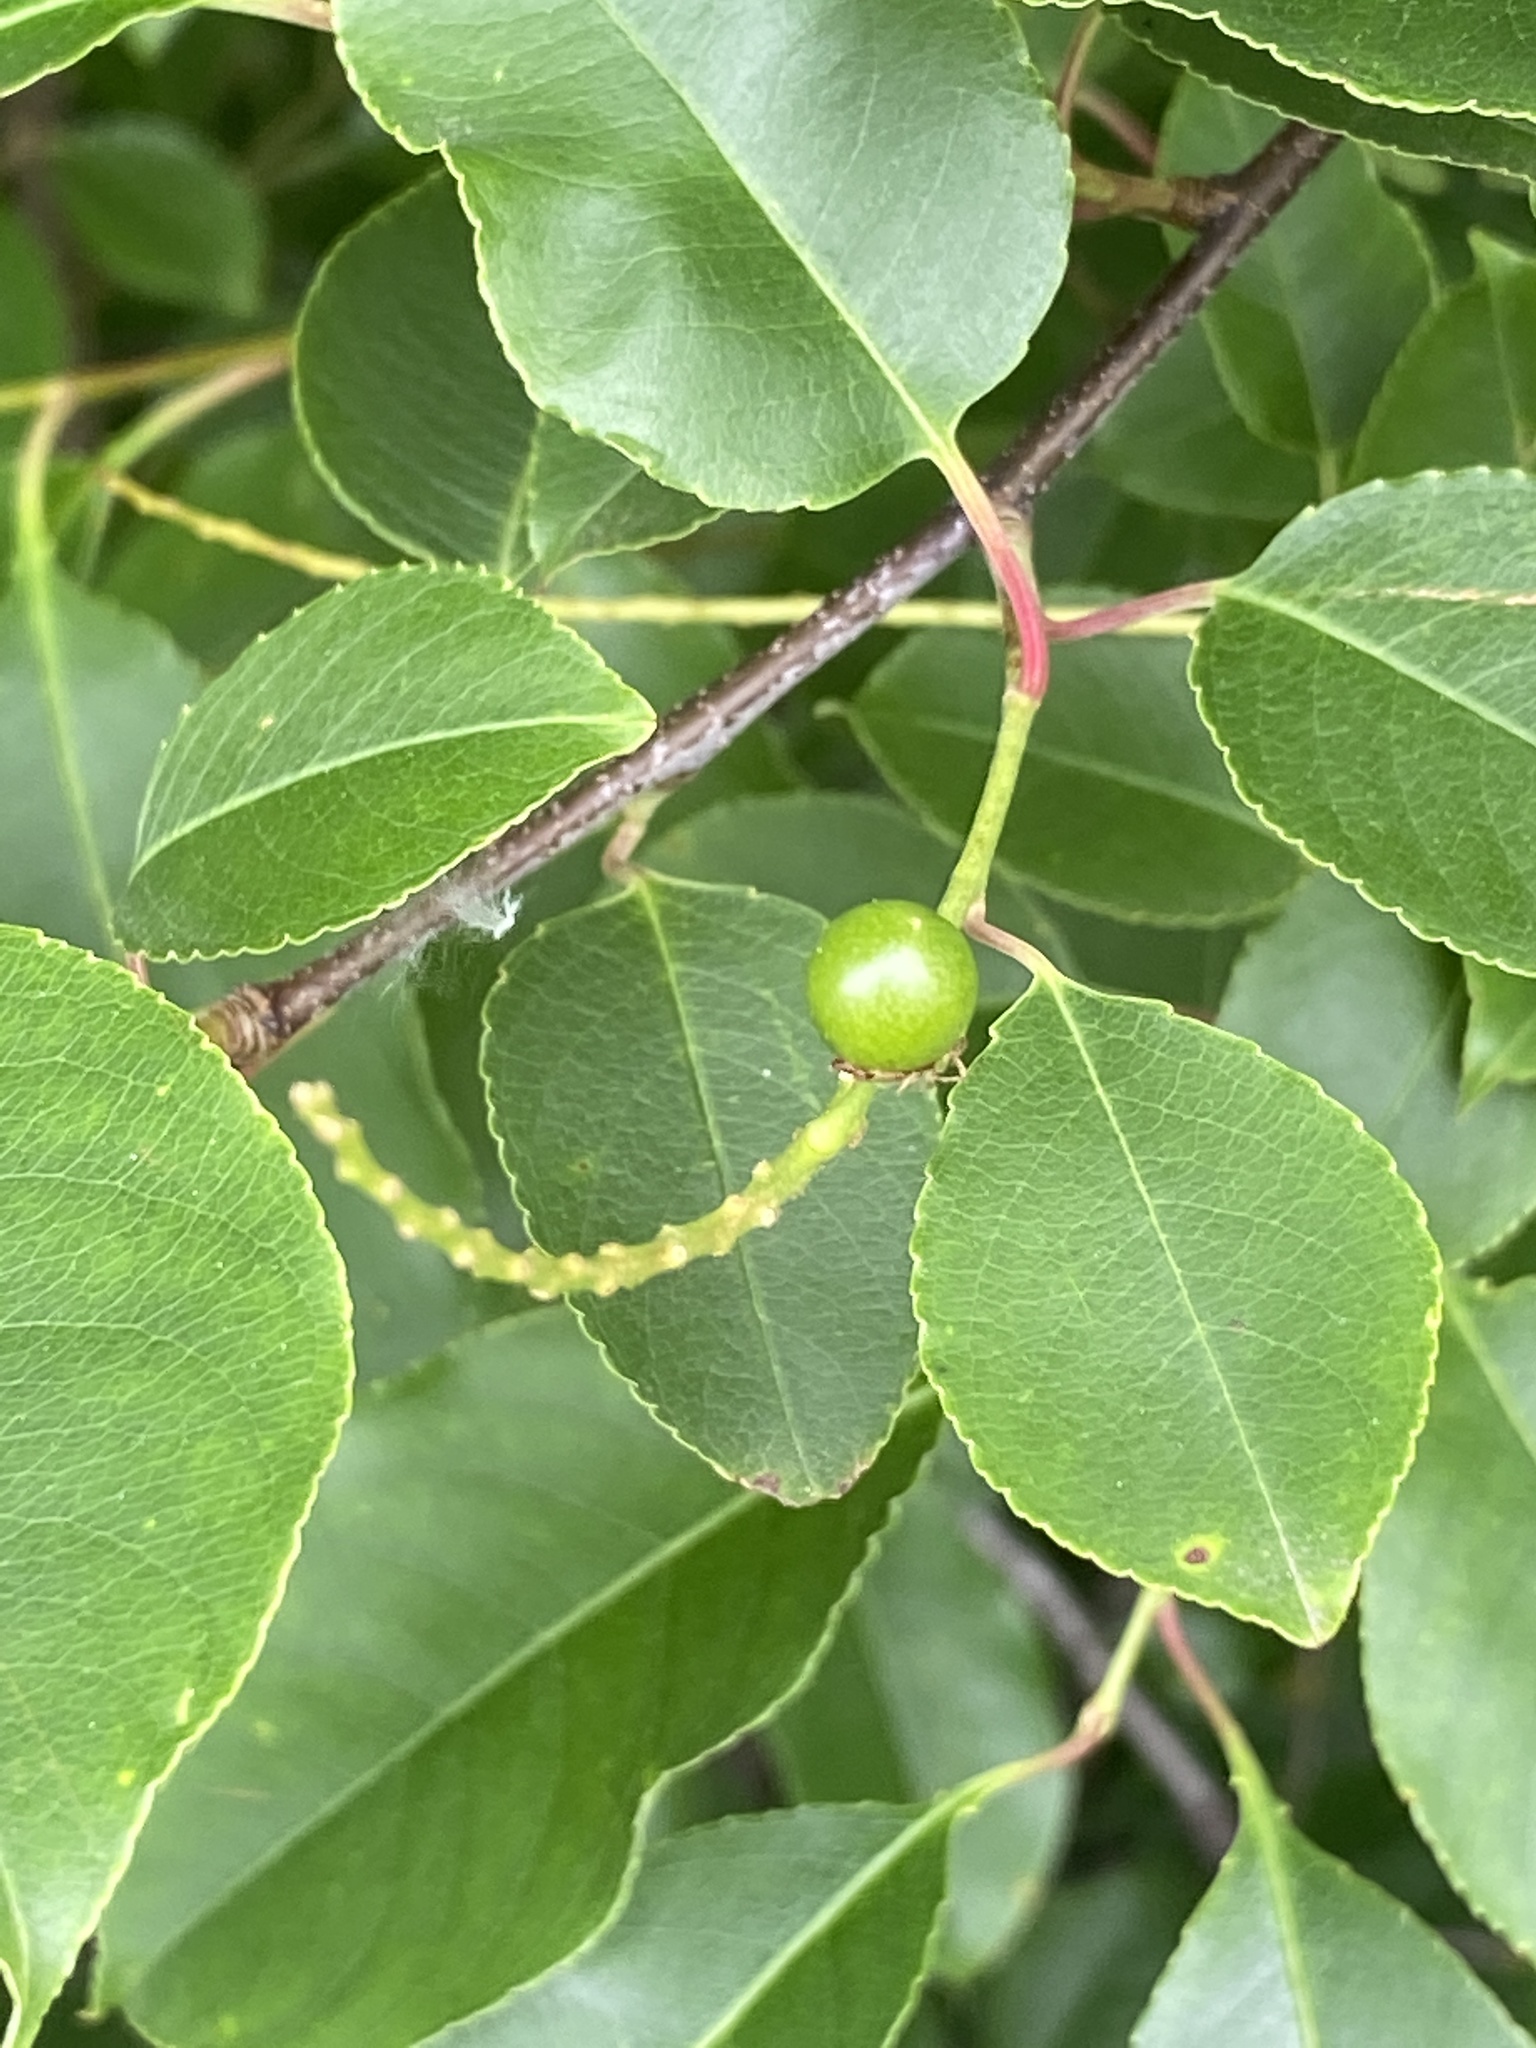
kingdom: Plantae
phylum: Tracheophyta
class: Magnoliopsida
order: Rosales
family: Rosaceae
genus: Prunus
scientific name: Prunus serotina
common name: Black cherry
